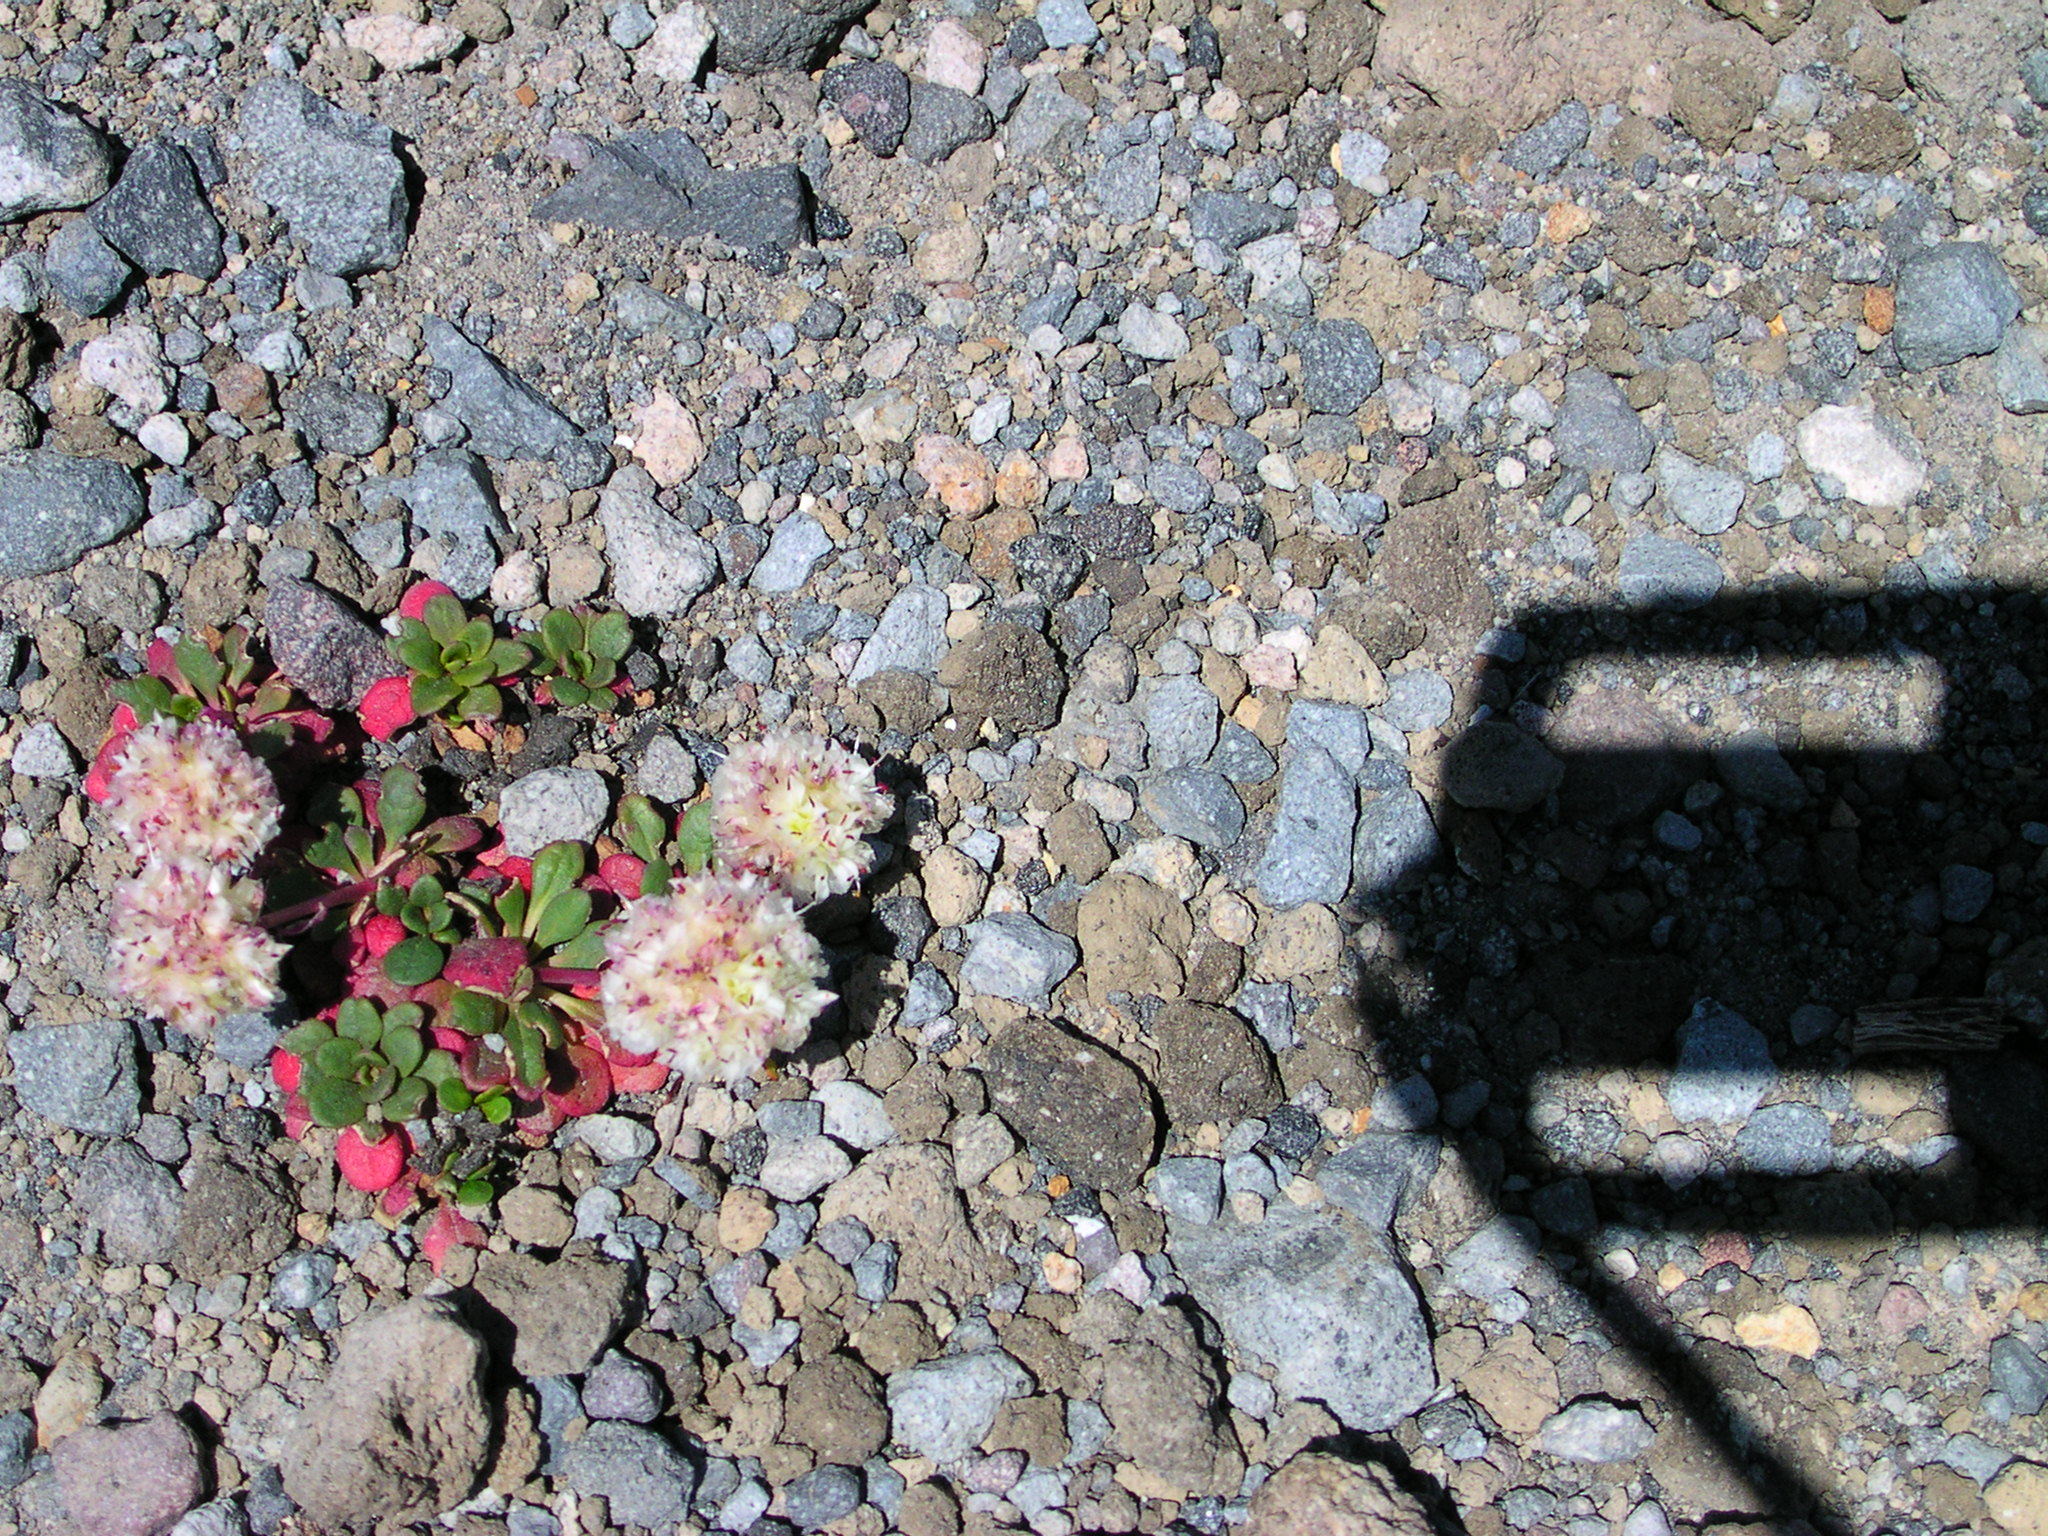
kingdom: Plantae
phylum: Tracheophyta
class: Magnoliopsida
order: Caryophyllales
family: Montiaceae
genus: Calyptridium
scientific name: Calyptridium umbellatum
